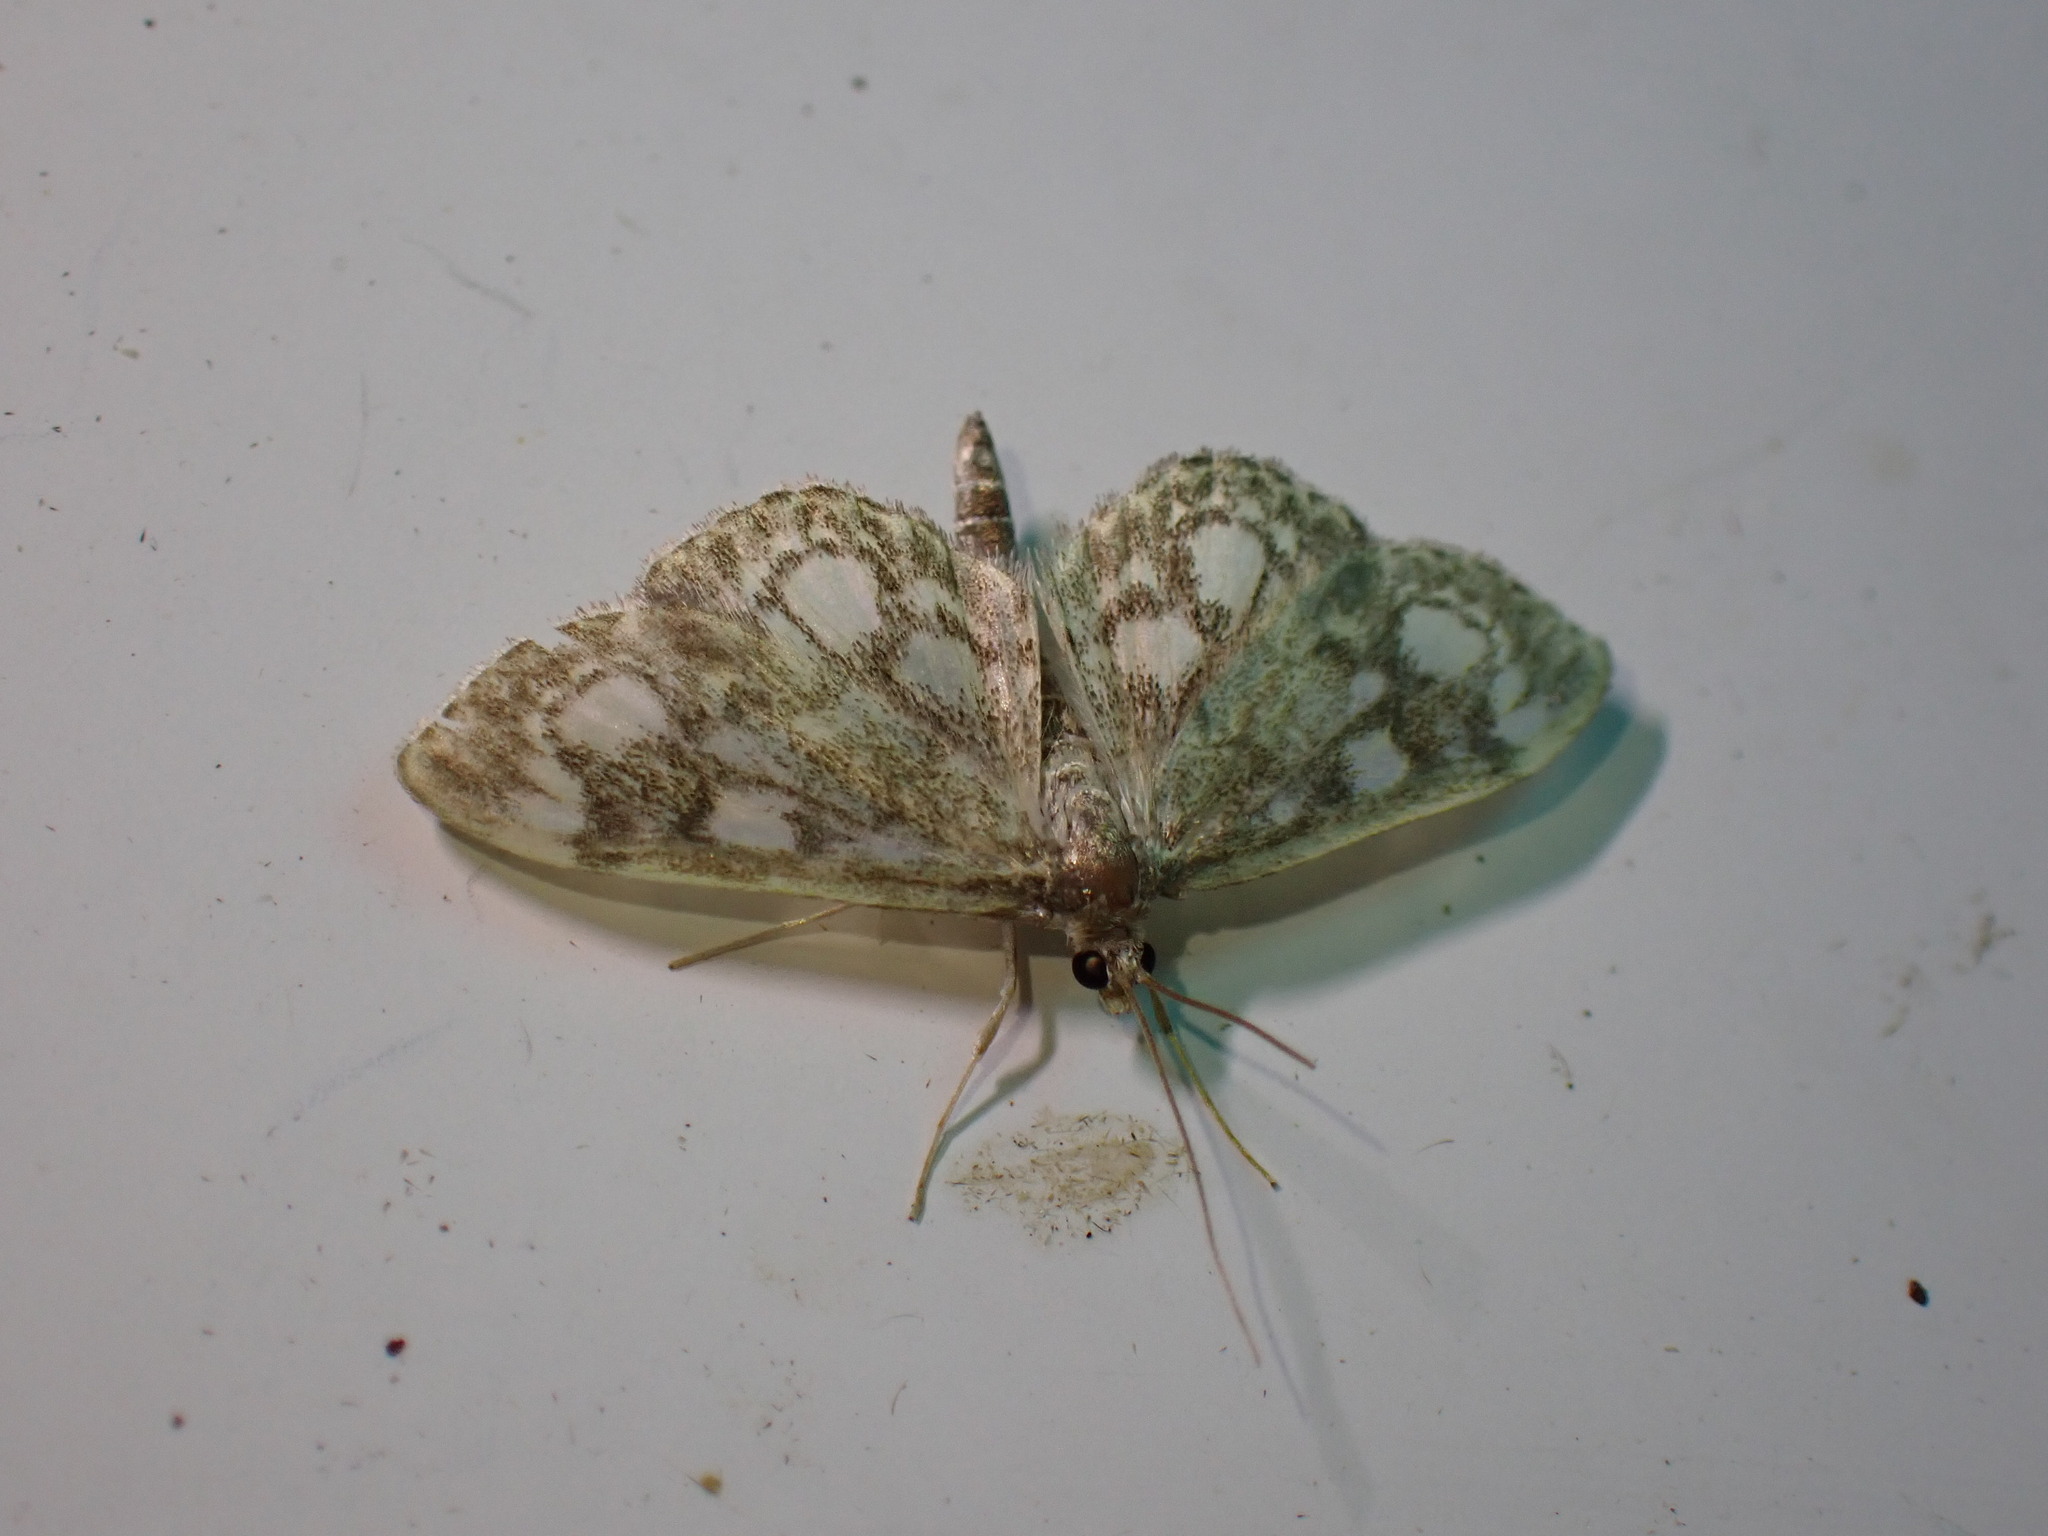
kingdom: Animalia
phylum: Arthropoda
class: Insecta
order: Lepidoptera
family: Crambidae
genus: Anania
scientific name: Anania coronata
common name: Elder pearl
